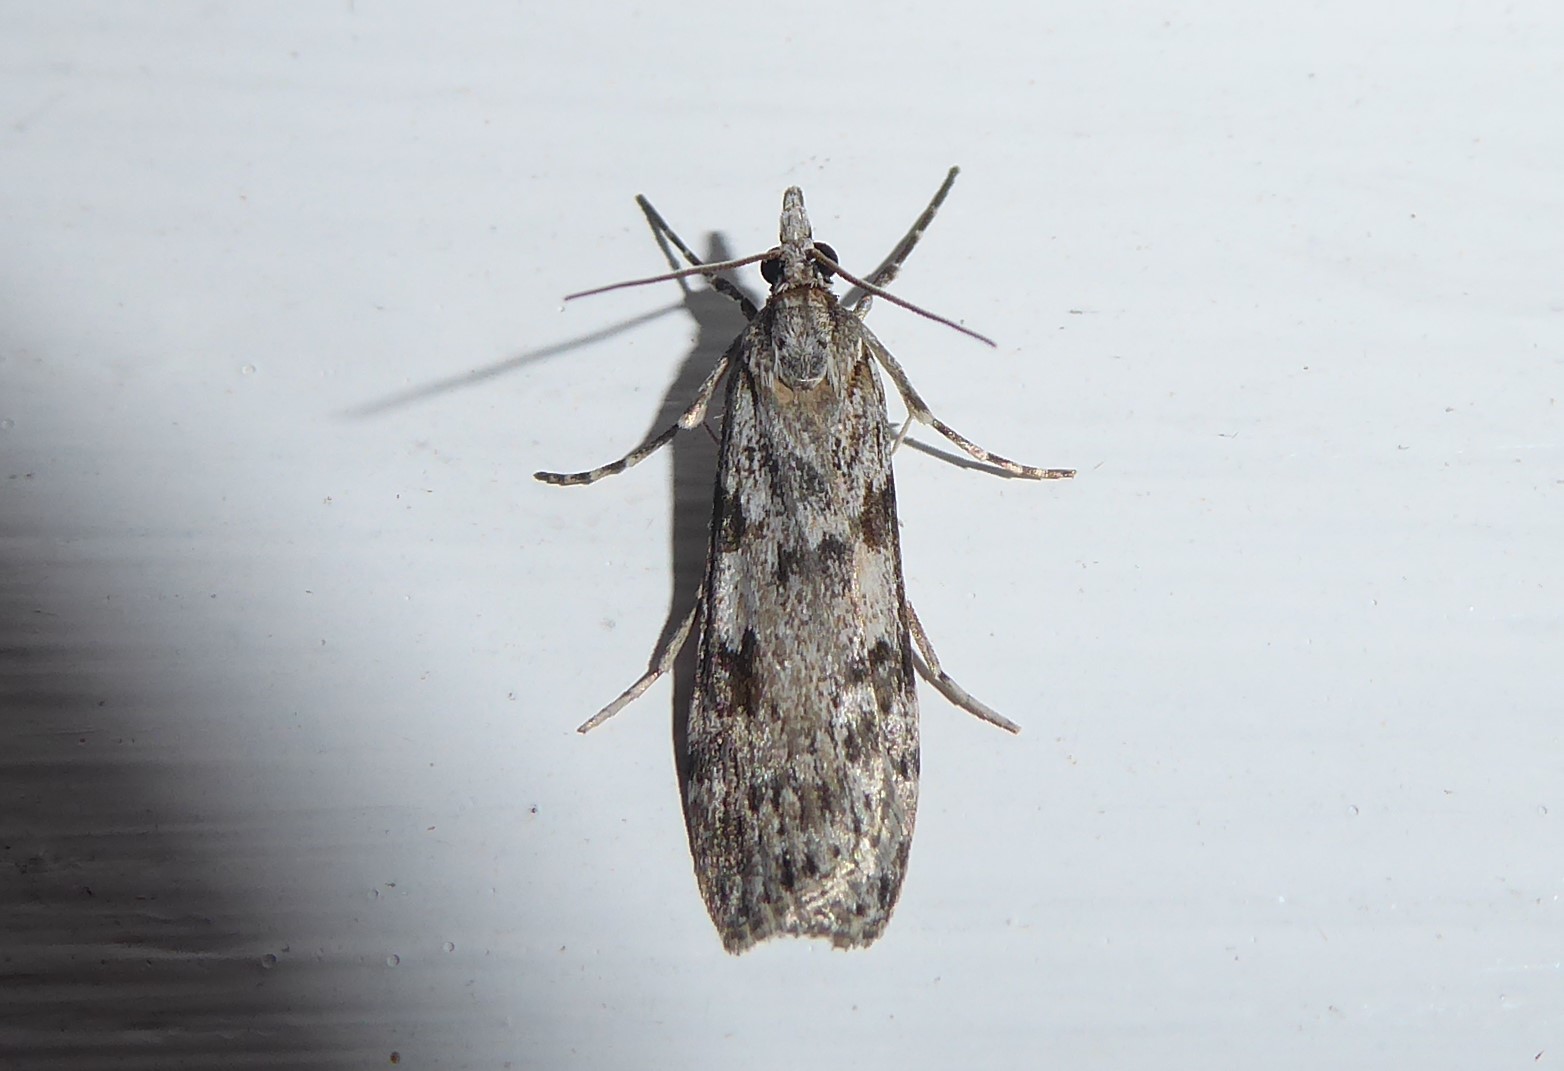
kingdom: Animalia
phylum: Arthropoda
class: Insecta
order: Lepidoptera
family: Crambidae
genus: Scoparia
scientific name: Scoparia halopis
